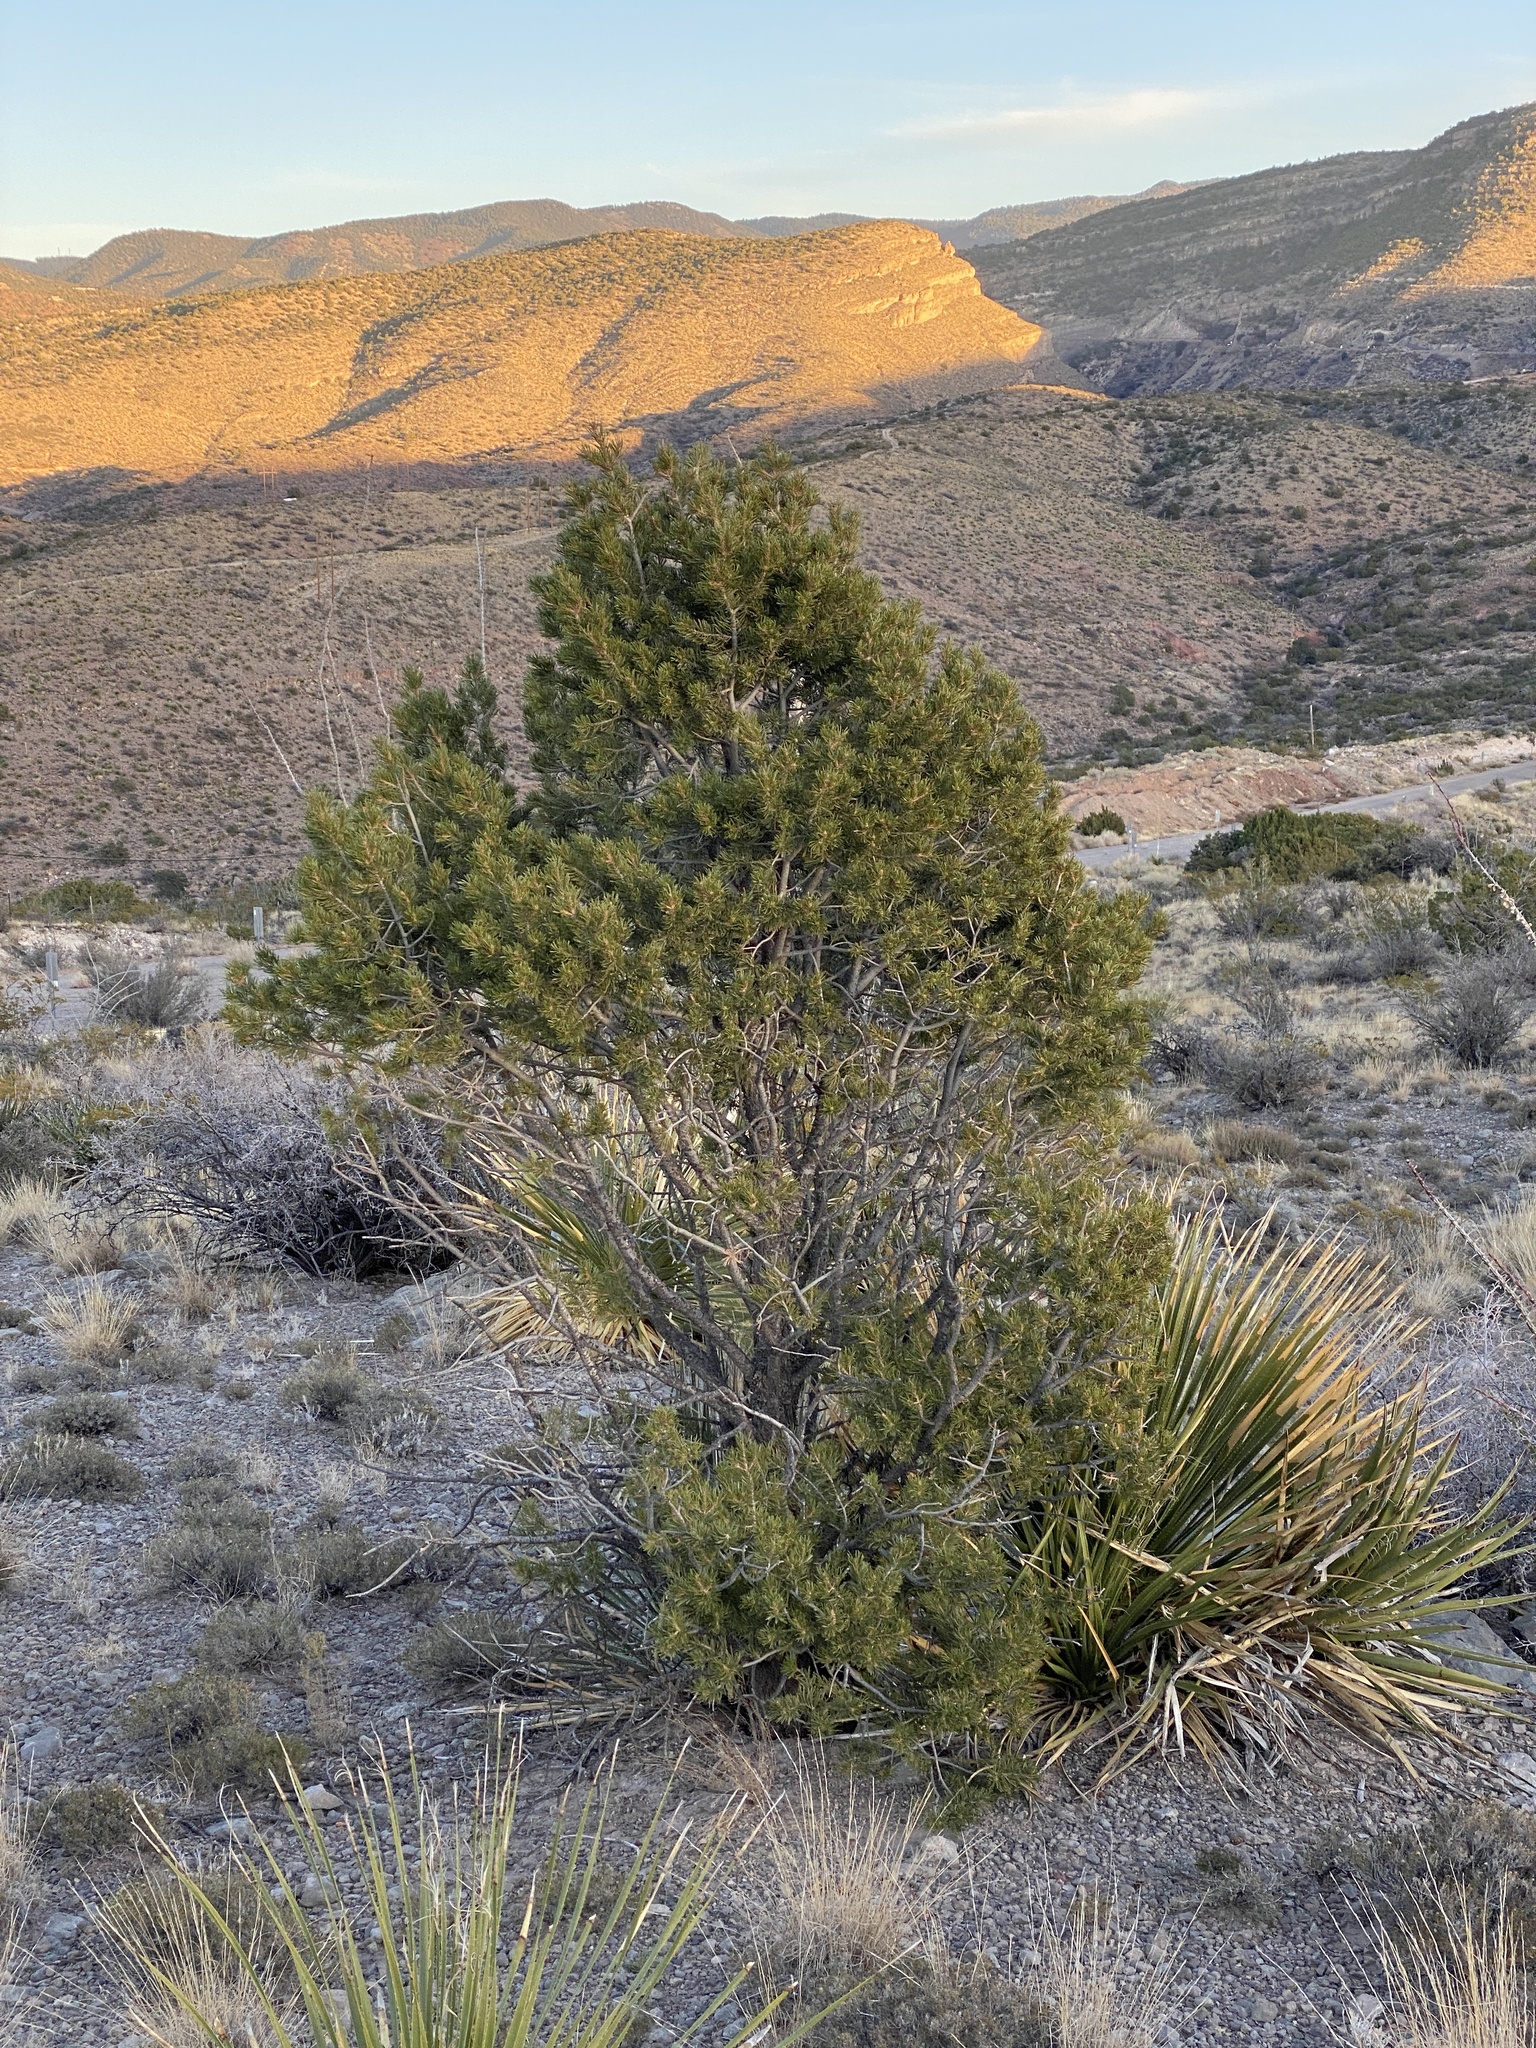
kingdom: Plantae
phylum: Tracheophyta
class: Pinopsida
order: Pinales
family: Pinaceae
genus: Pinus
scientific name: Pinus edulis
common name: Colorado pinyon
